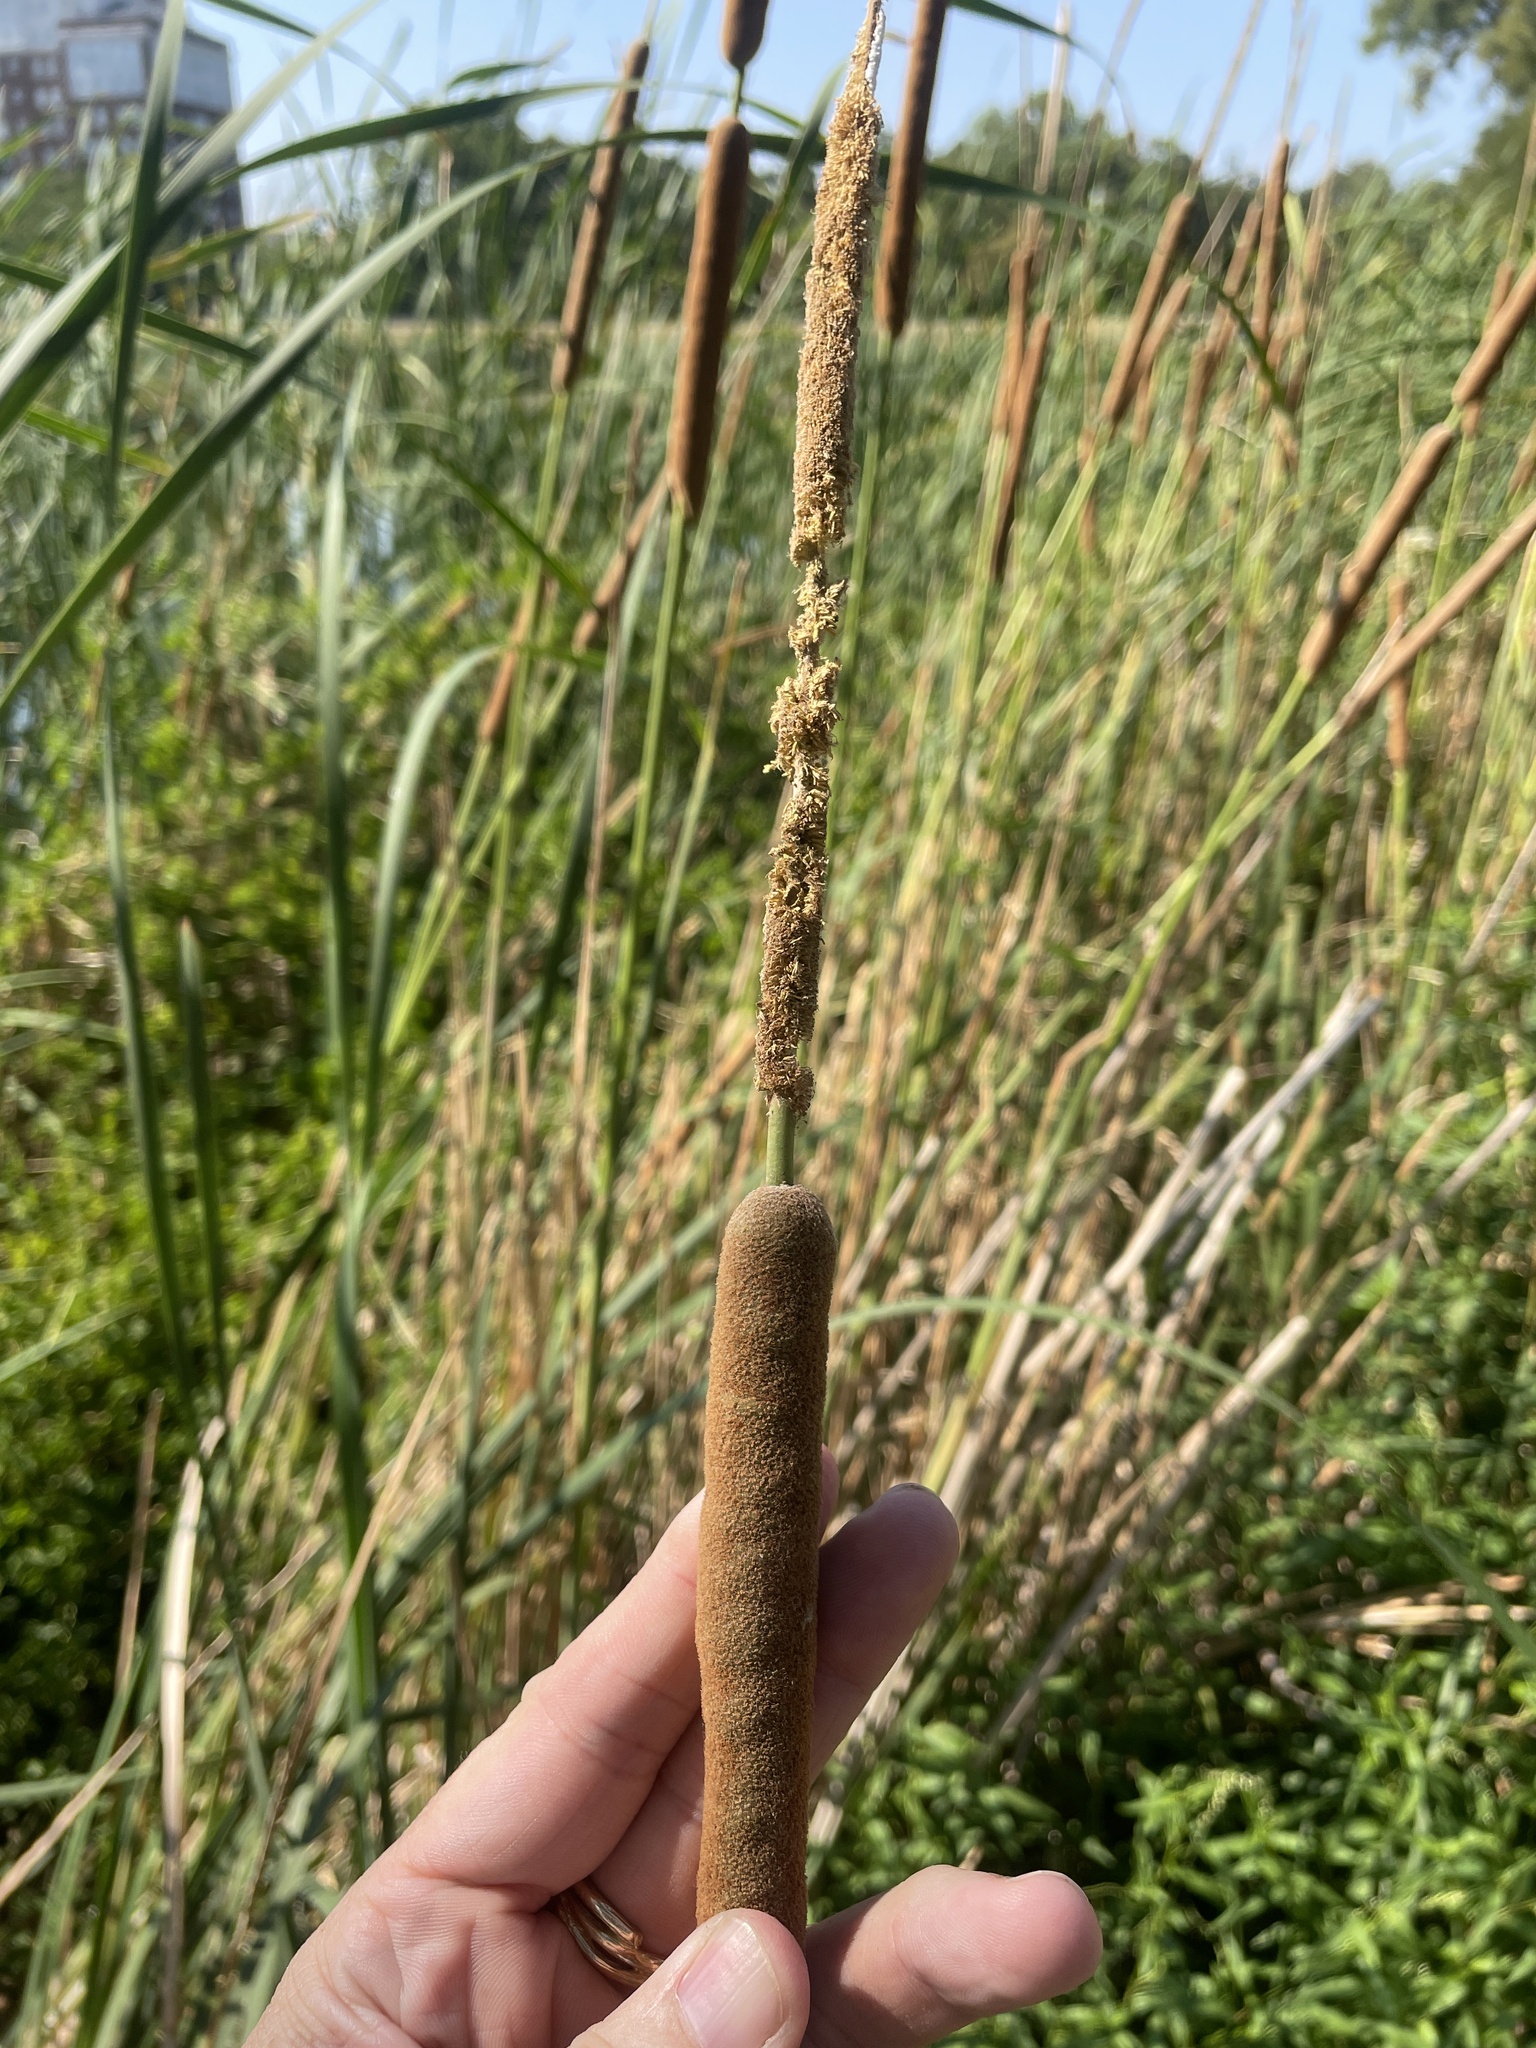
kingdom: Plantae
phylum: Tracheophyta
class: Liliopsida
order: Poales
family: Typhaceae
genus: Typha
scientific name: Typha domingensis
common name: Southern cattail
